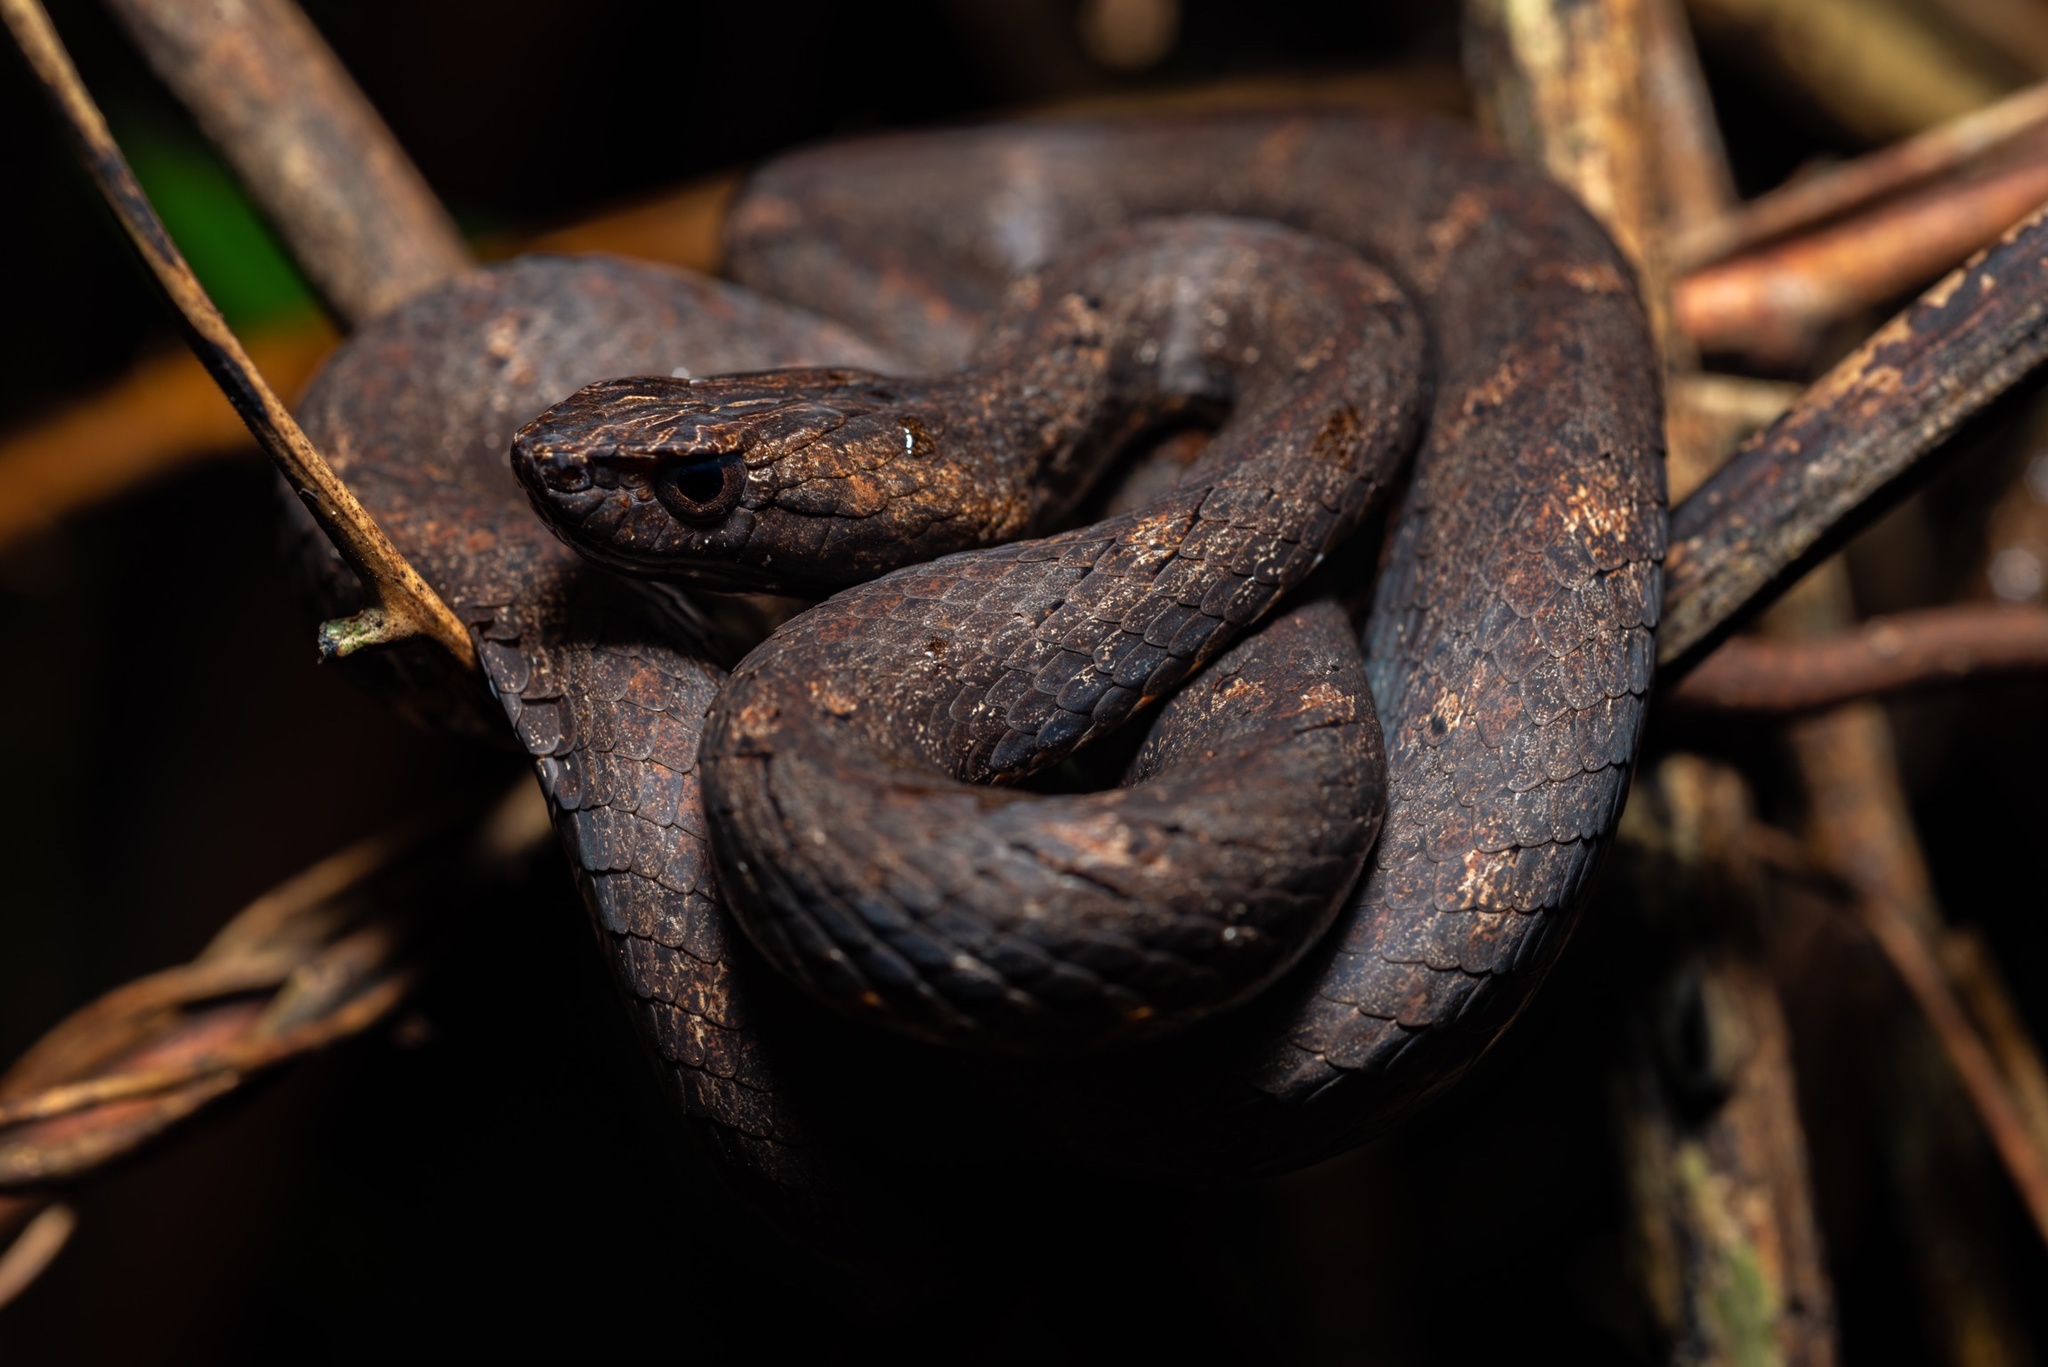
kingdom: Animalia
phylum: Chordata
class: Squamata
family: Pseudaspididae
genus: Psammodynastes
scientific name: Psammodynastes pulverulentus
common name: Common mock viper
